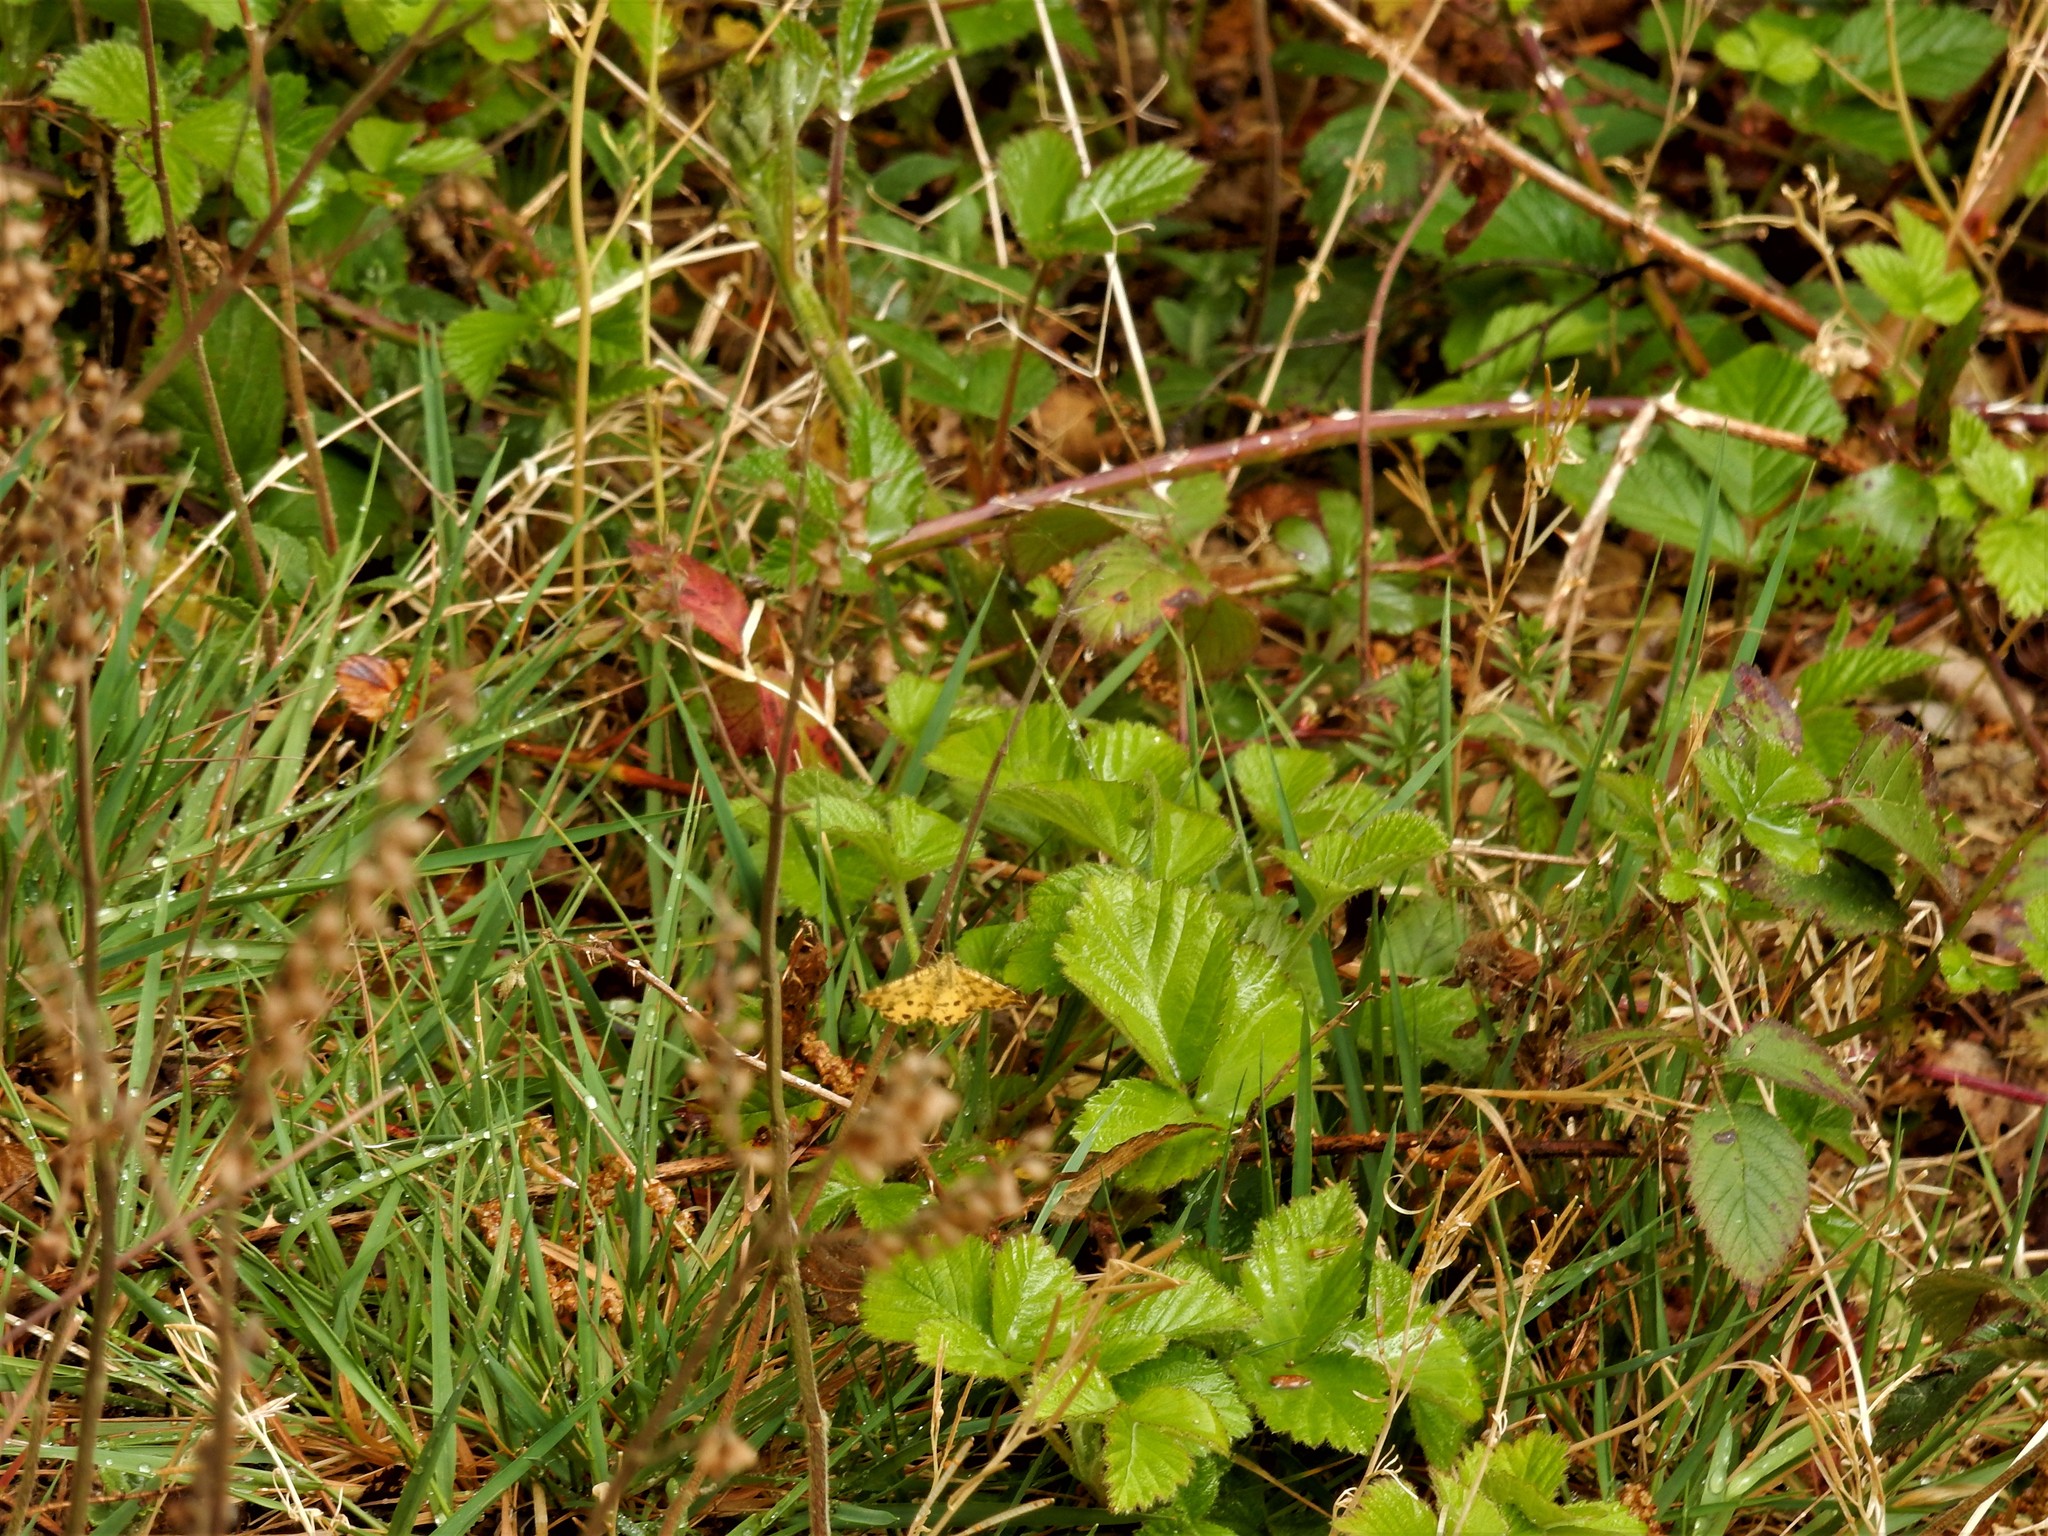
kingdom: Animalia
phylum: Arthropoda
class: Insecta
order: Lepidoptera
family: Geometridae
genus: Pseudopanthera
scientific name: Pseudopanthera macularia
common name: Speckled yellow
